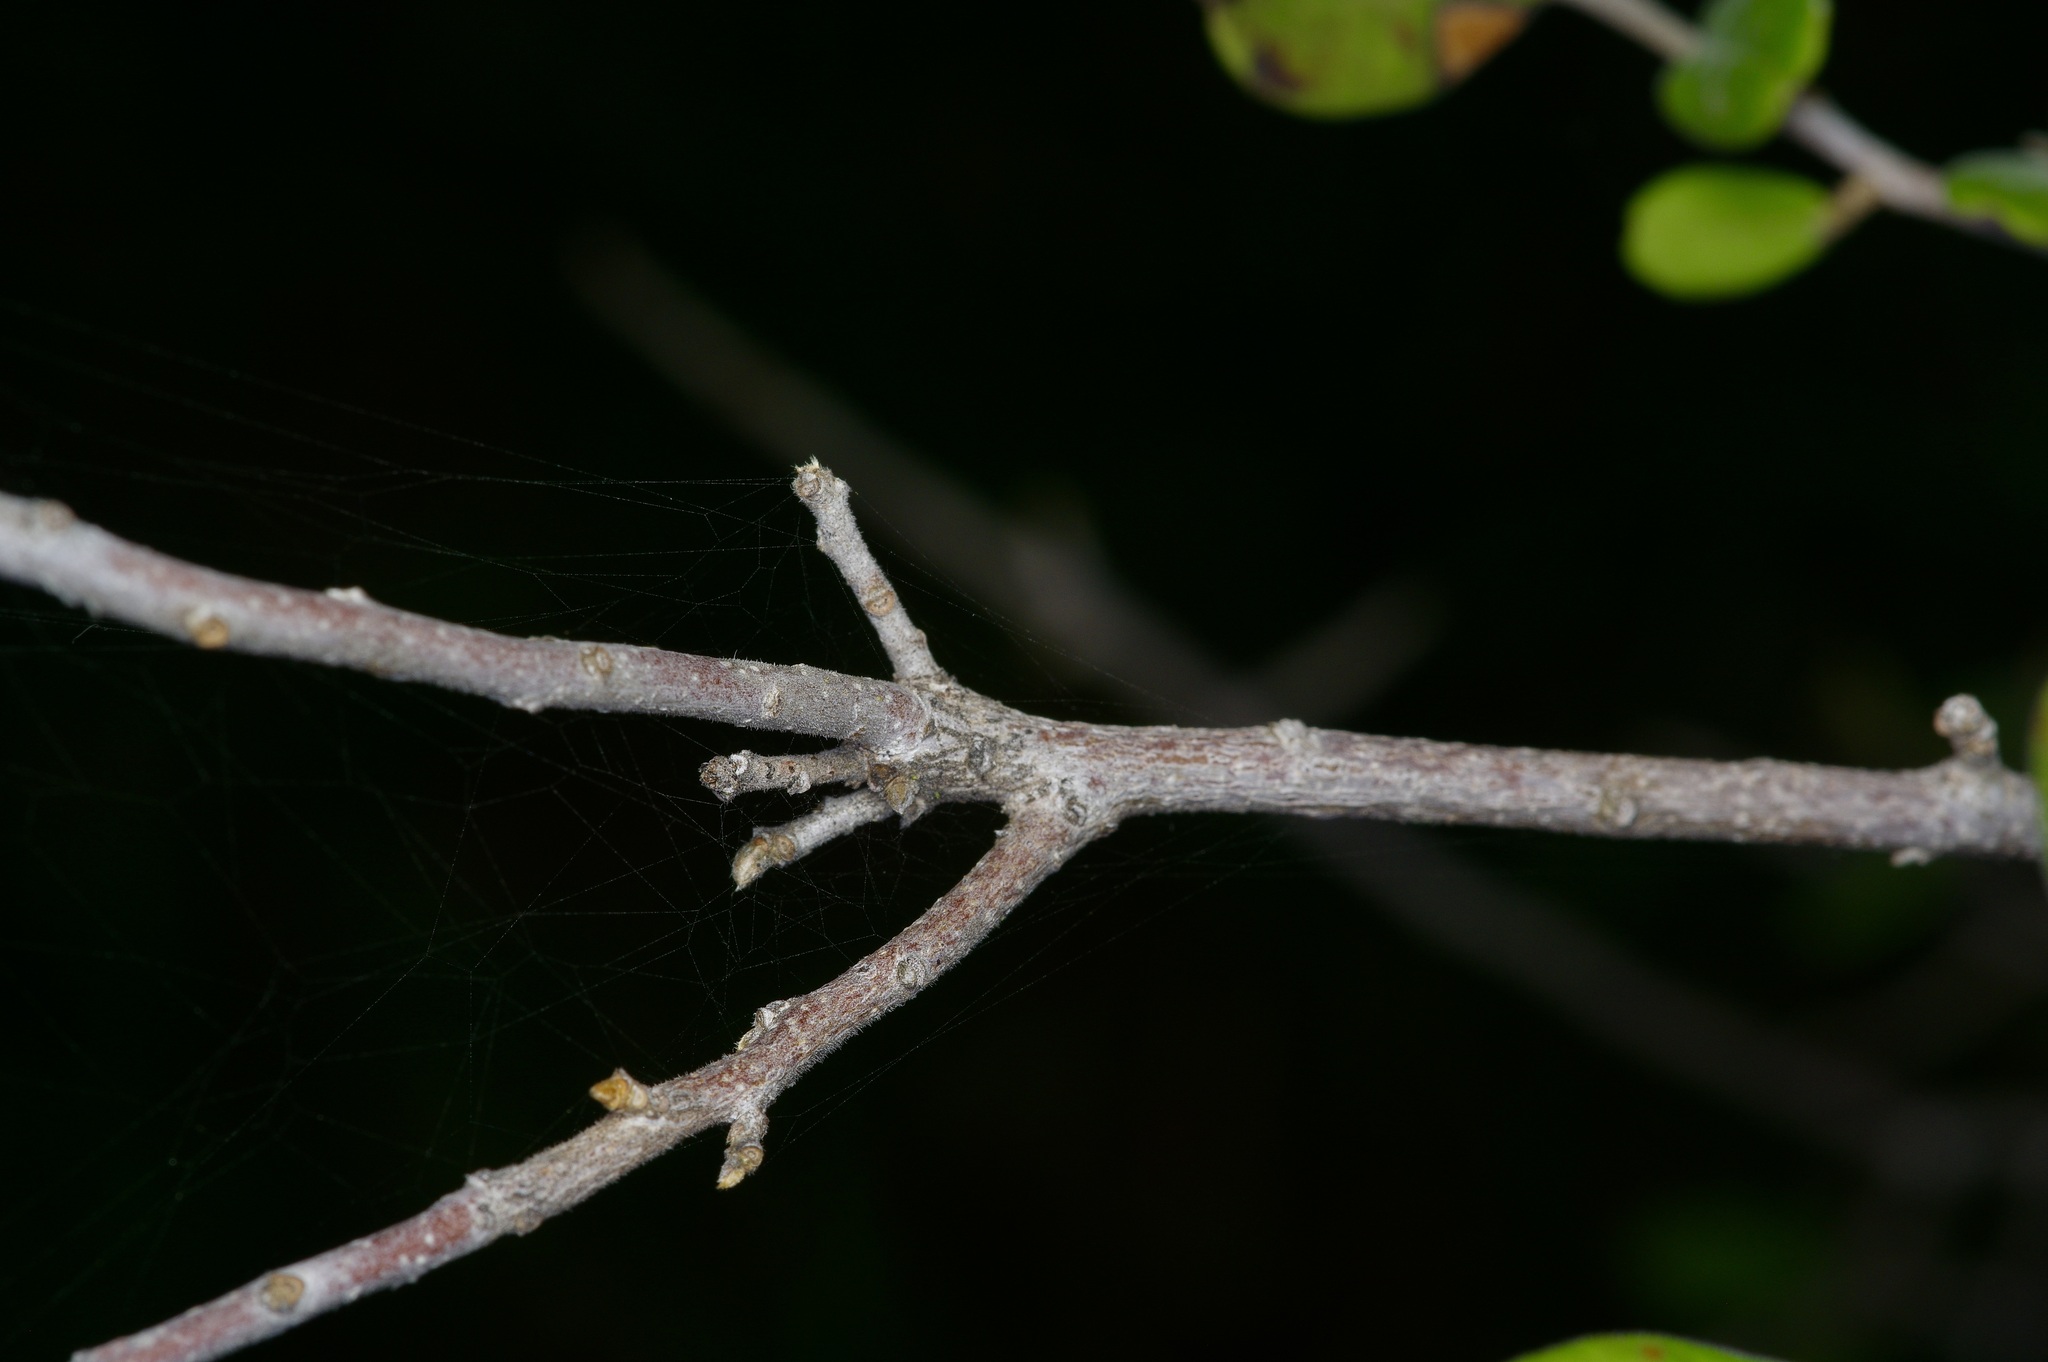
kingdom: Plantae
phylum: Tracheophyta
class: Magnoliopsida
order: Ericales
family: Ebenaceae
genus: Diospyros
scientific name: Diospyros texana
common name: Texas persimmon
